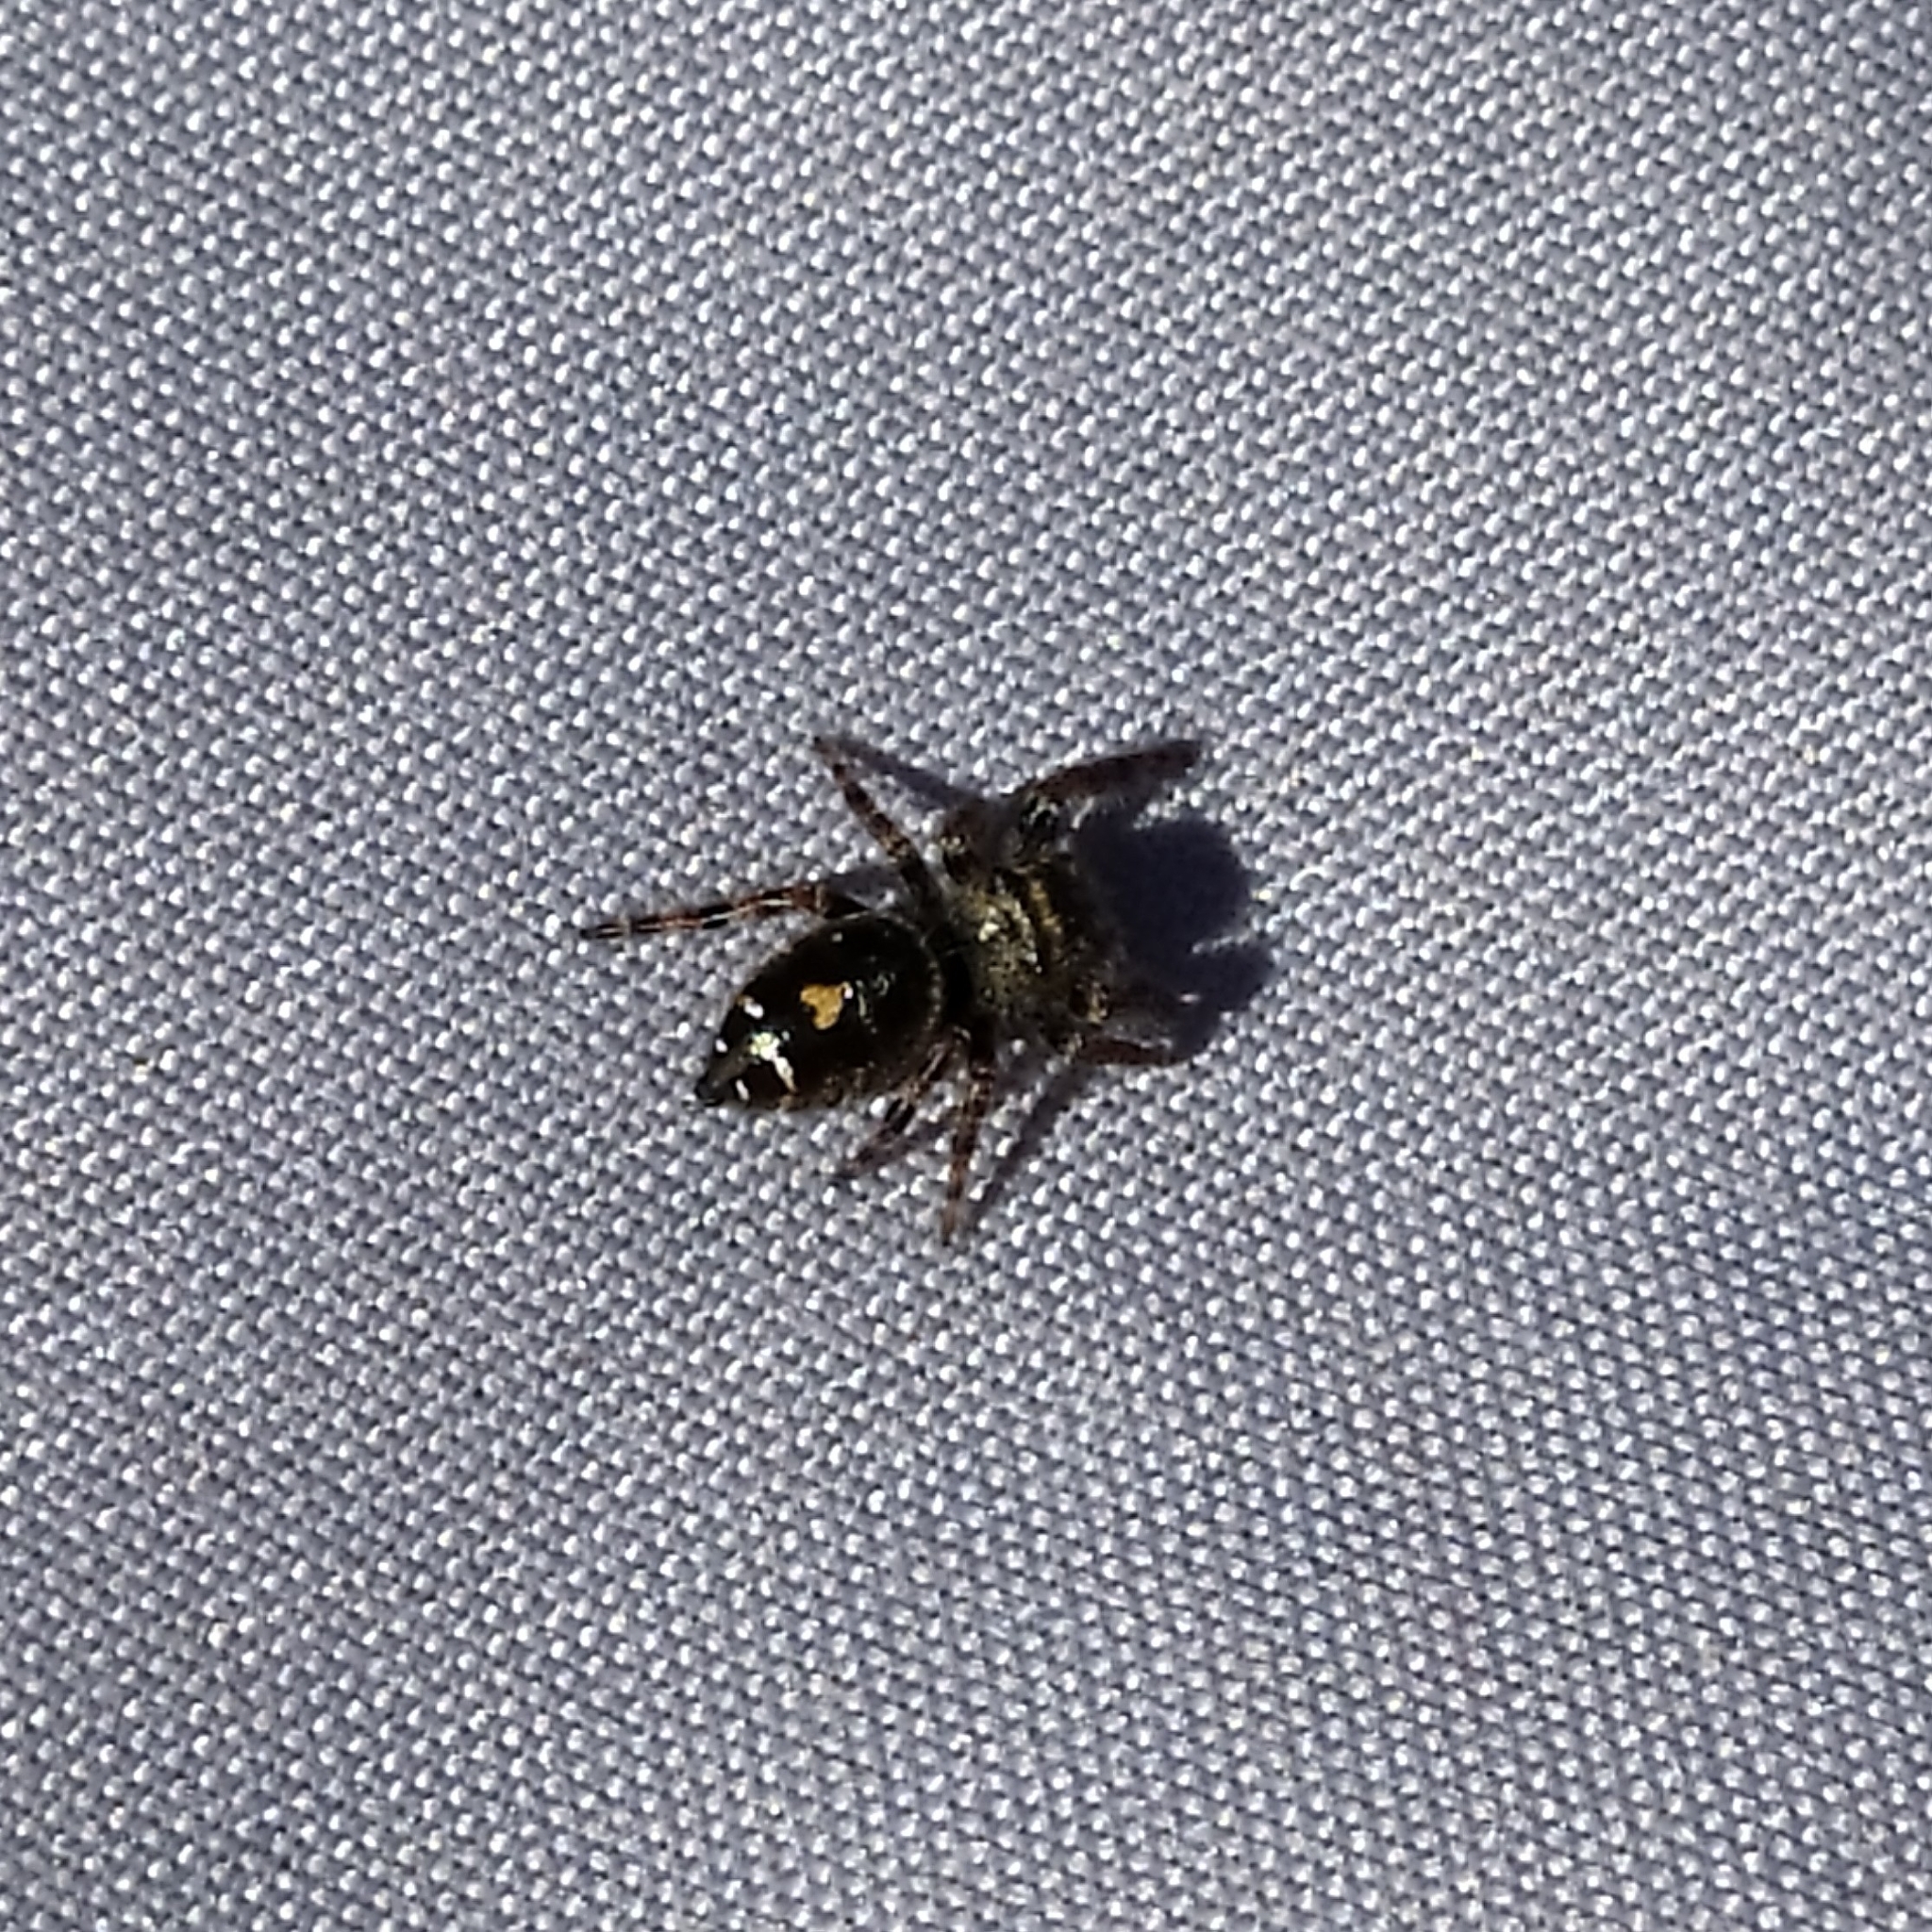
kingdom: Animalia
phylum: Arthropoda
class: Arachnida
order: Araneae
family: Salticidae
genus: Phidippus
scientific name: Phidippus audax
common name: Bold jumper
